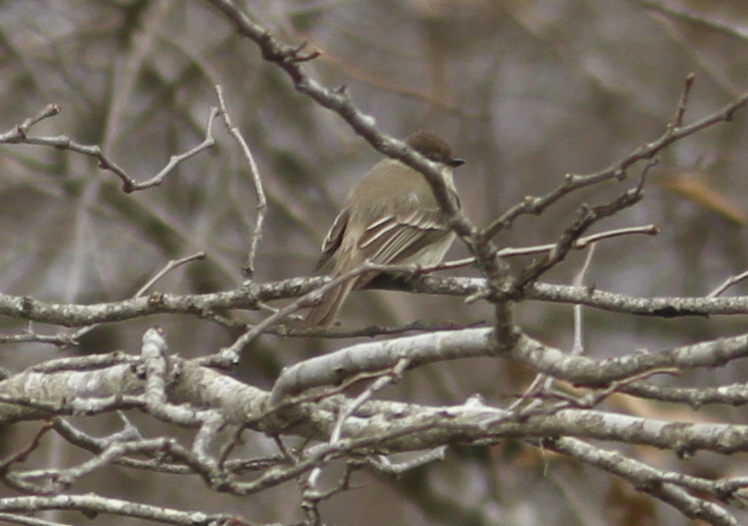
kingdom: Animalia
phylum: Chordata
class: Aves
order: Passeriformes
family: Tyrannidae
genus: Sayornis
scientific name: Sayornis phoebe
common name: Eastern phoebe
